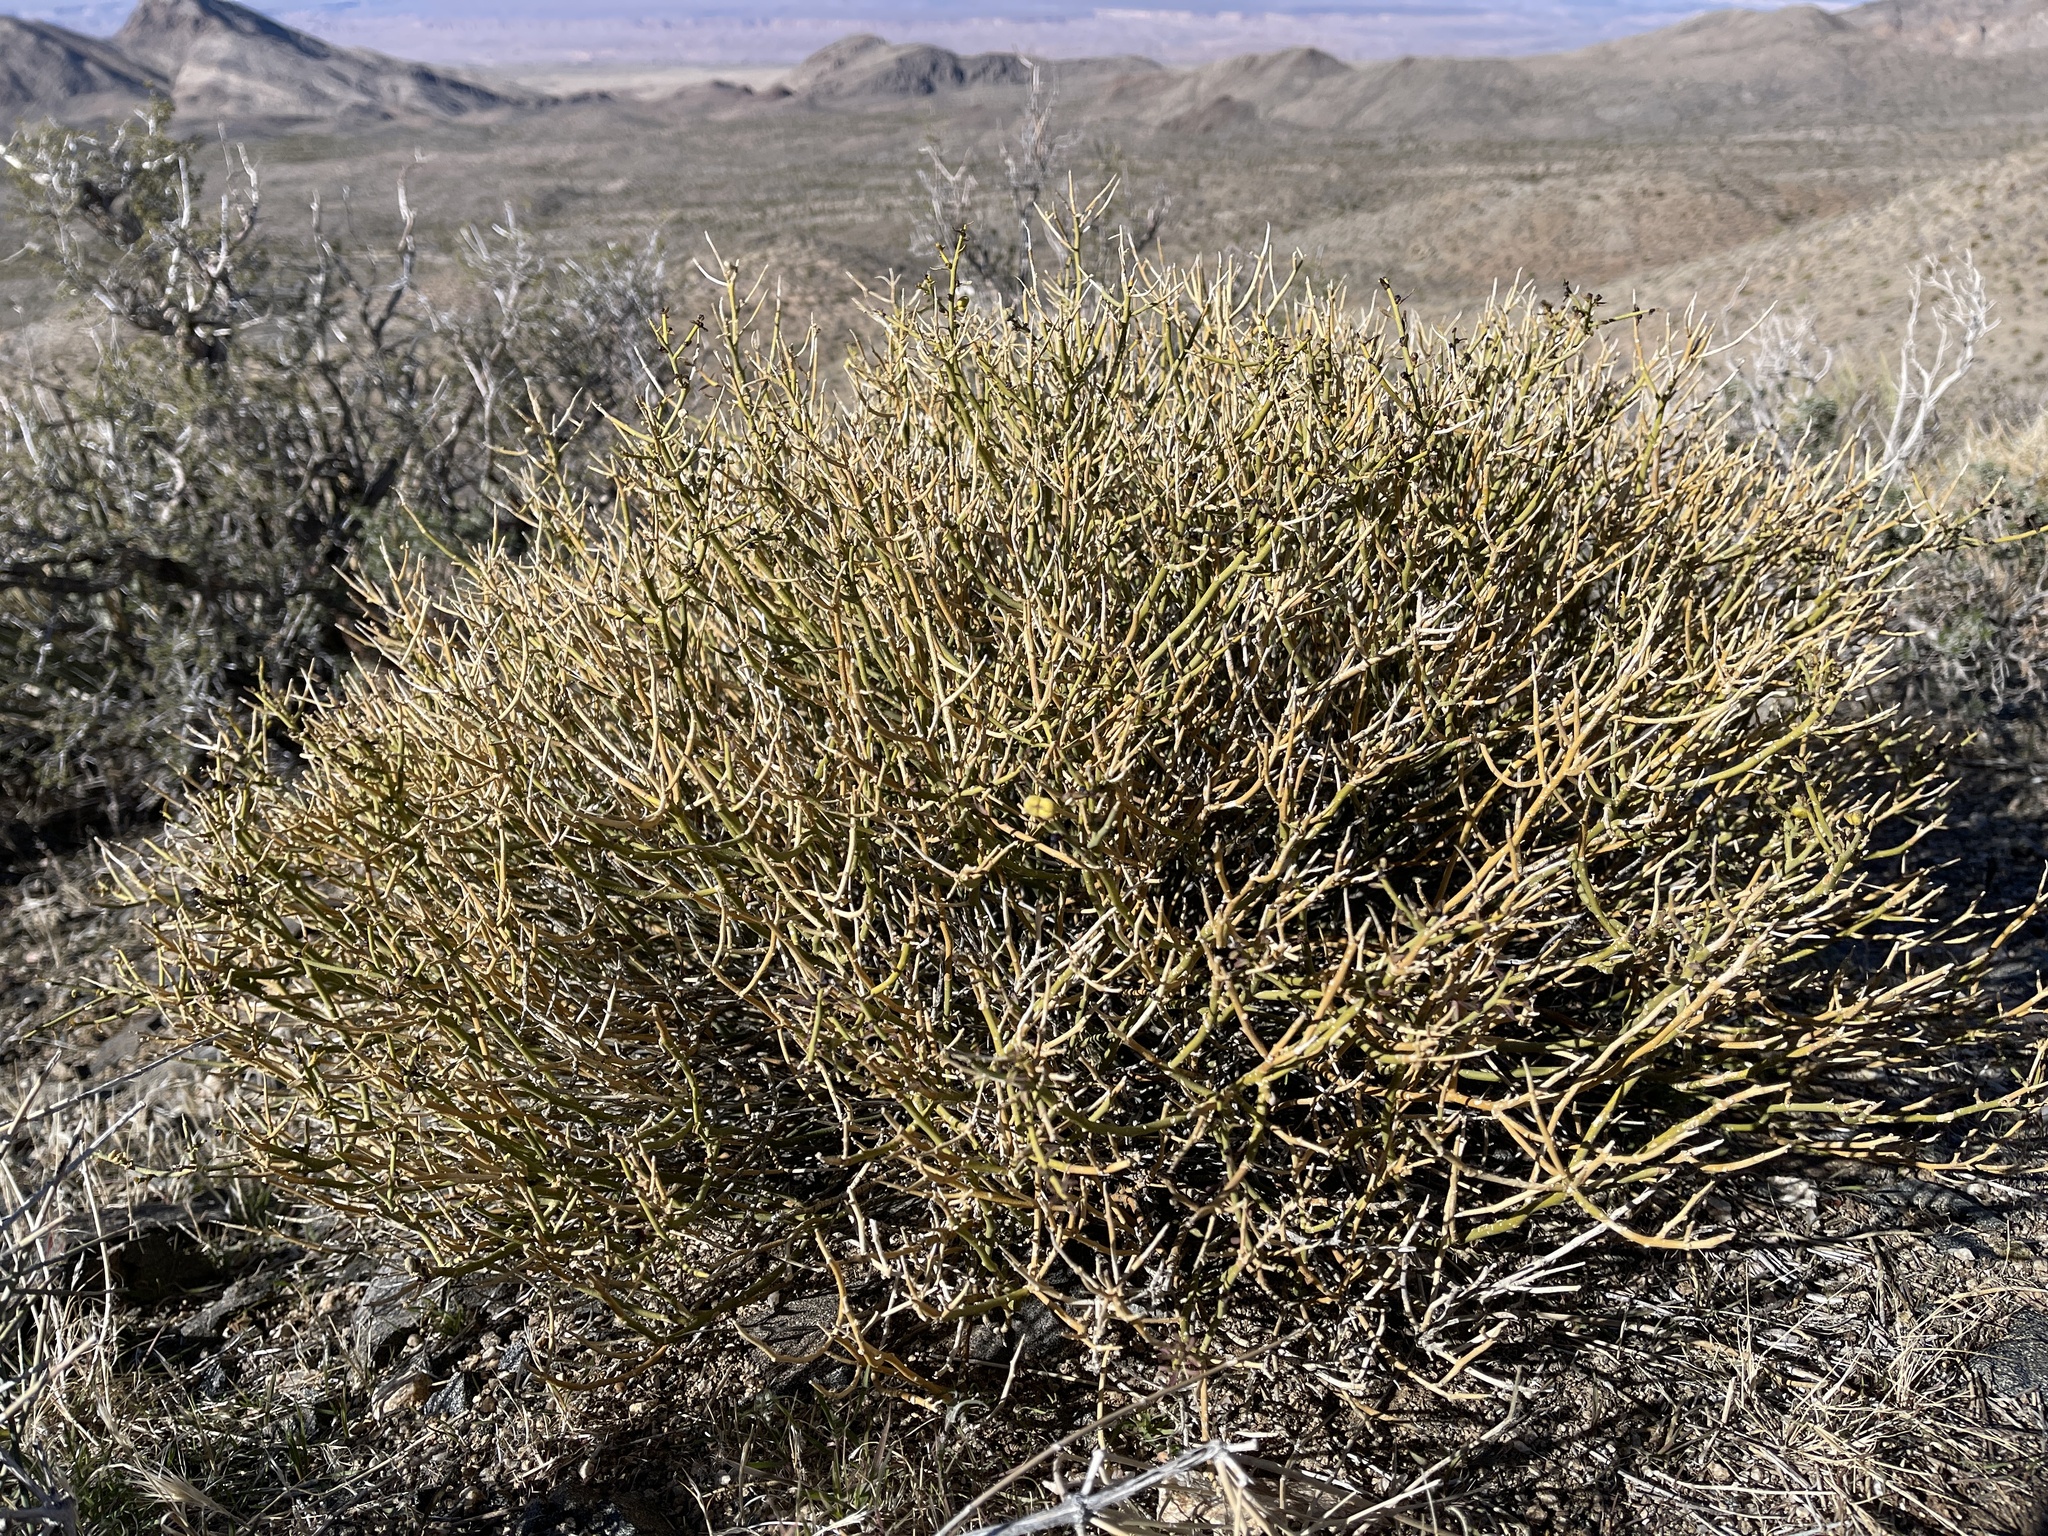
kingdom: Plantae
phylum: Tracheophyta
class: Magnoliopsida
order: Sapindales
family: Rutaceae
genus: Thamnosma
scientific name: Thamnosma montana
